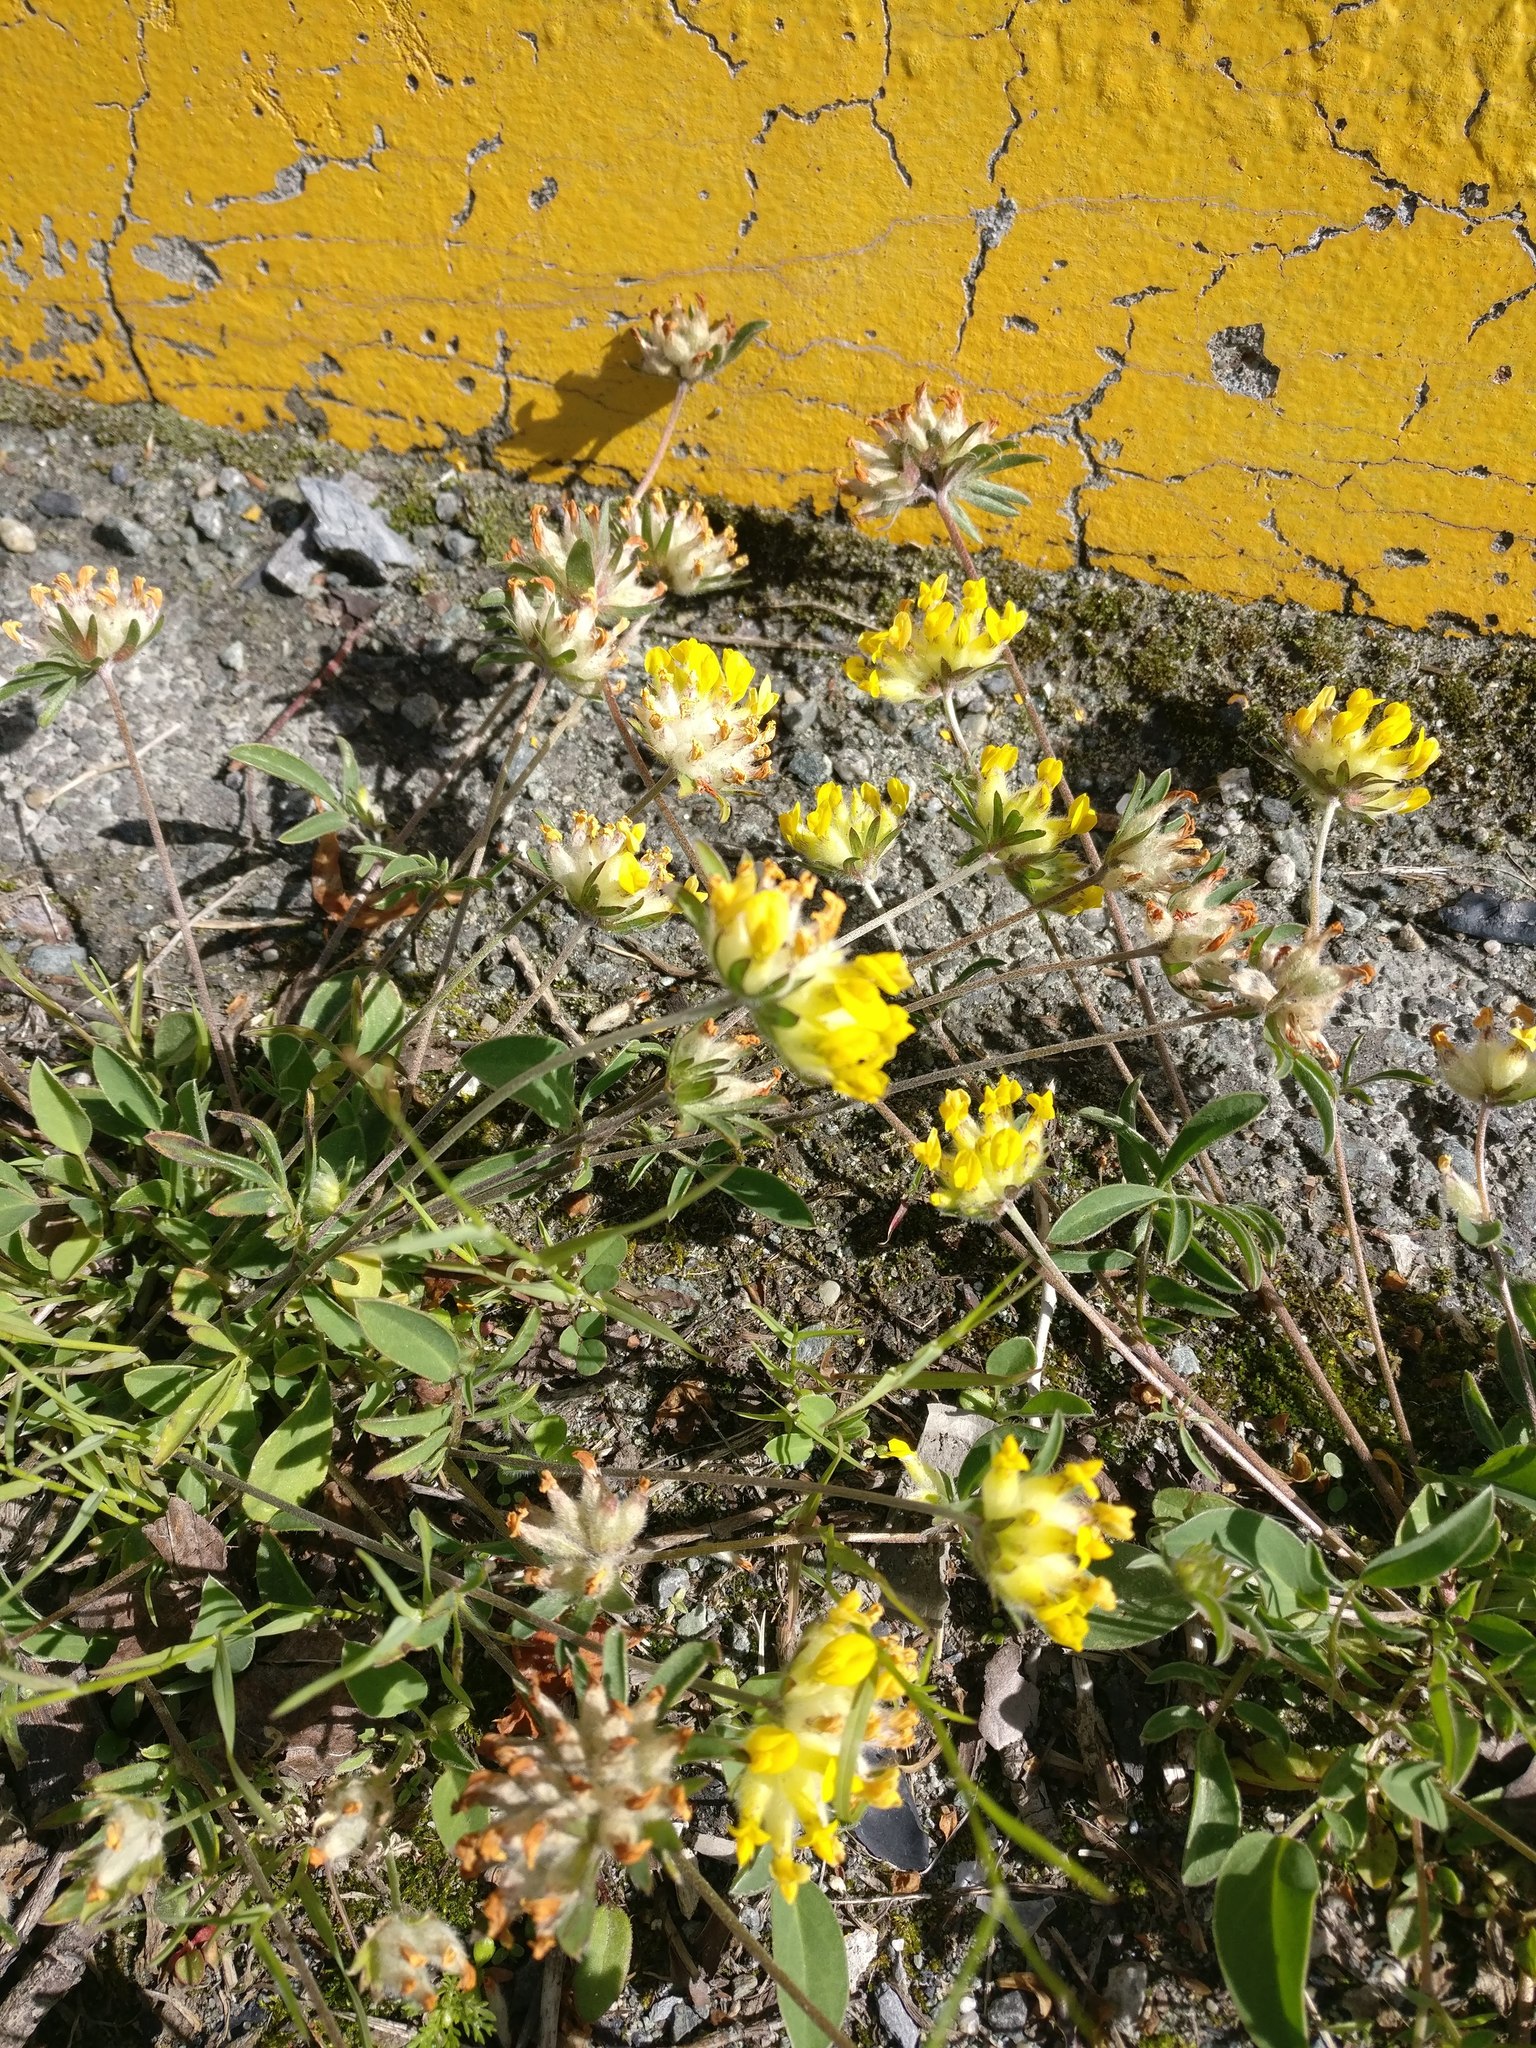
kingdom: Plantae
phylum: Tracheophyta
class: Magnoliopsida
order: Fabales
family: Fabaceae
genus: Anthyllis
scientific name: Anthyllis vulneraria
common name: Kidney vetch
